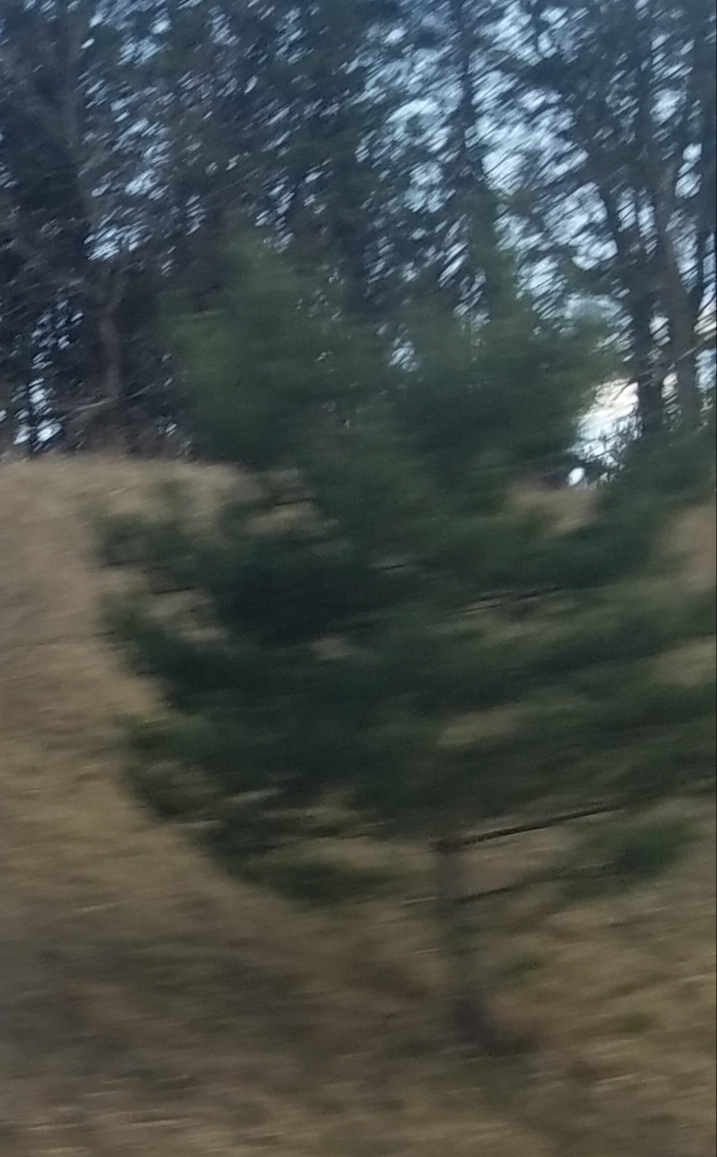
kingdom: Plantae
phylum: Tracheophyta
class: Pinopsida
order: Pinales
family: Pinaceae
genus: Pinus
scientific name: Pinus strobus
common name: Weymouth pine
